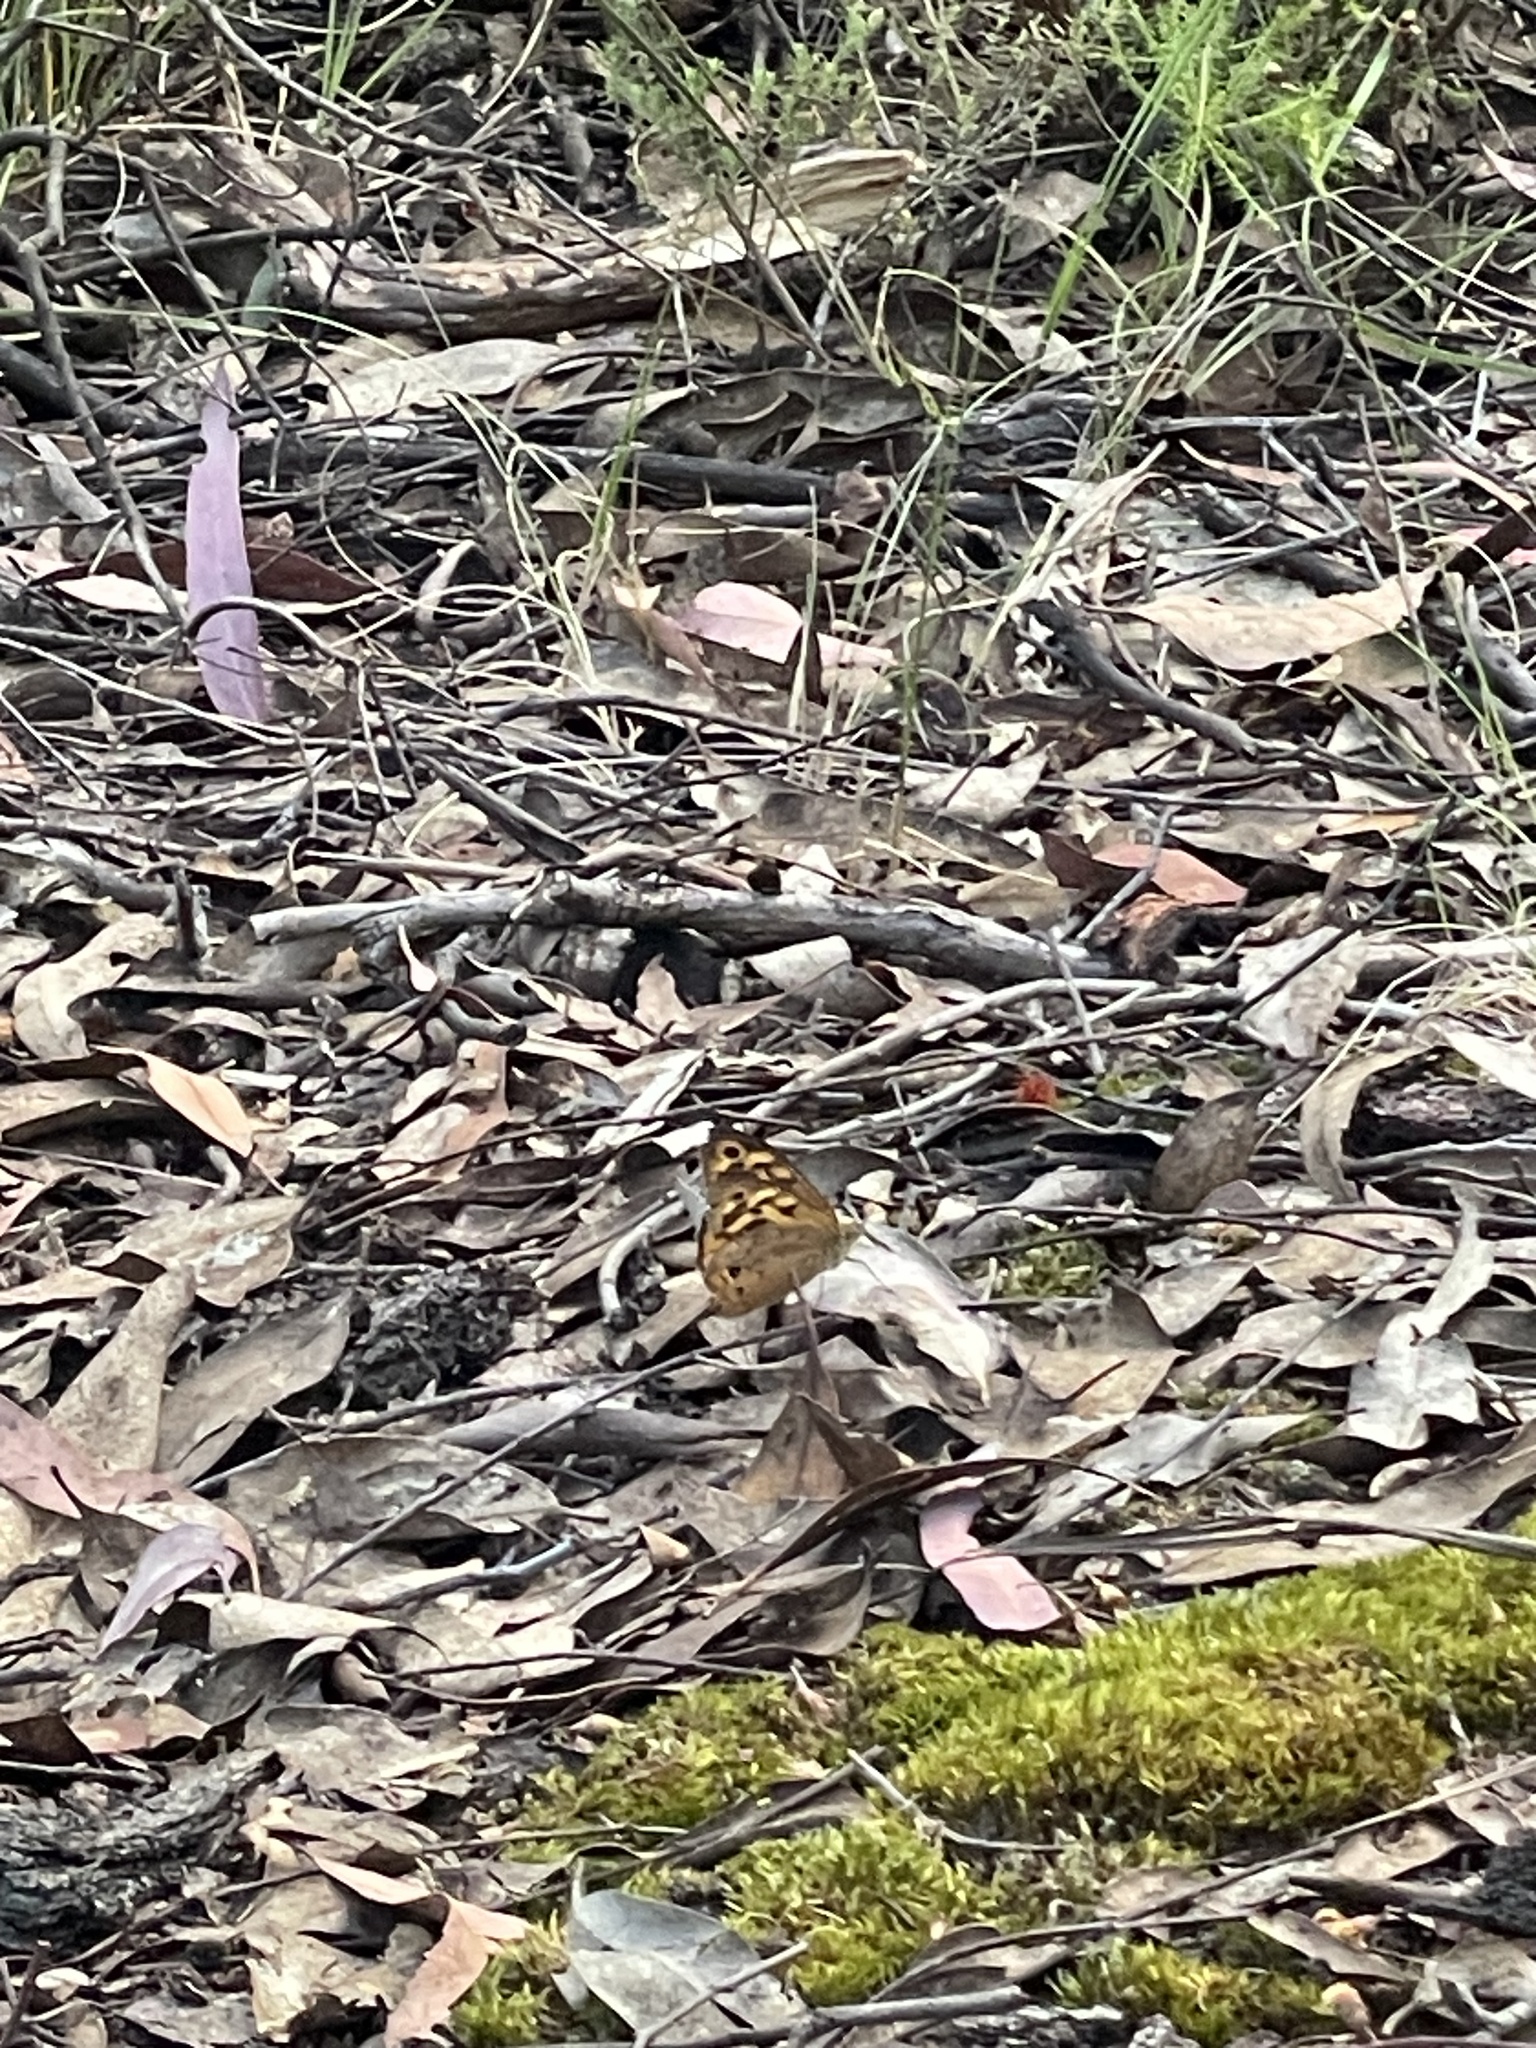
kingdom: Animalia
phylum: Arthropoda
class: Insecta
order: Lepidoptera
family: Nymphalidae
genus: Heteronympha
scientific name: Heteronympha merope
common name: Common brown
